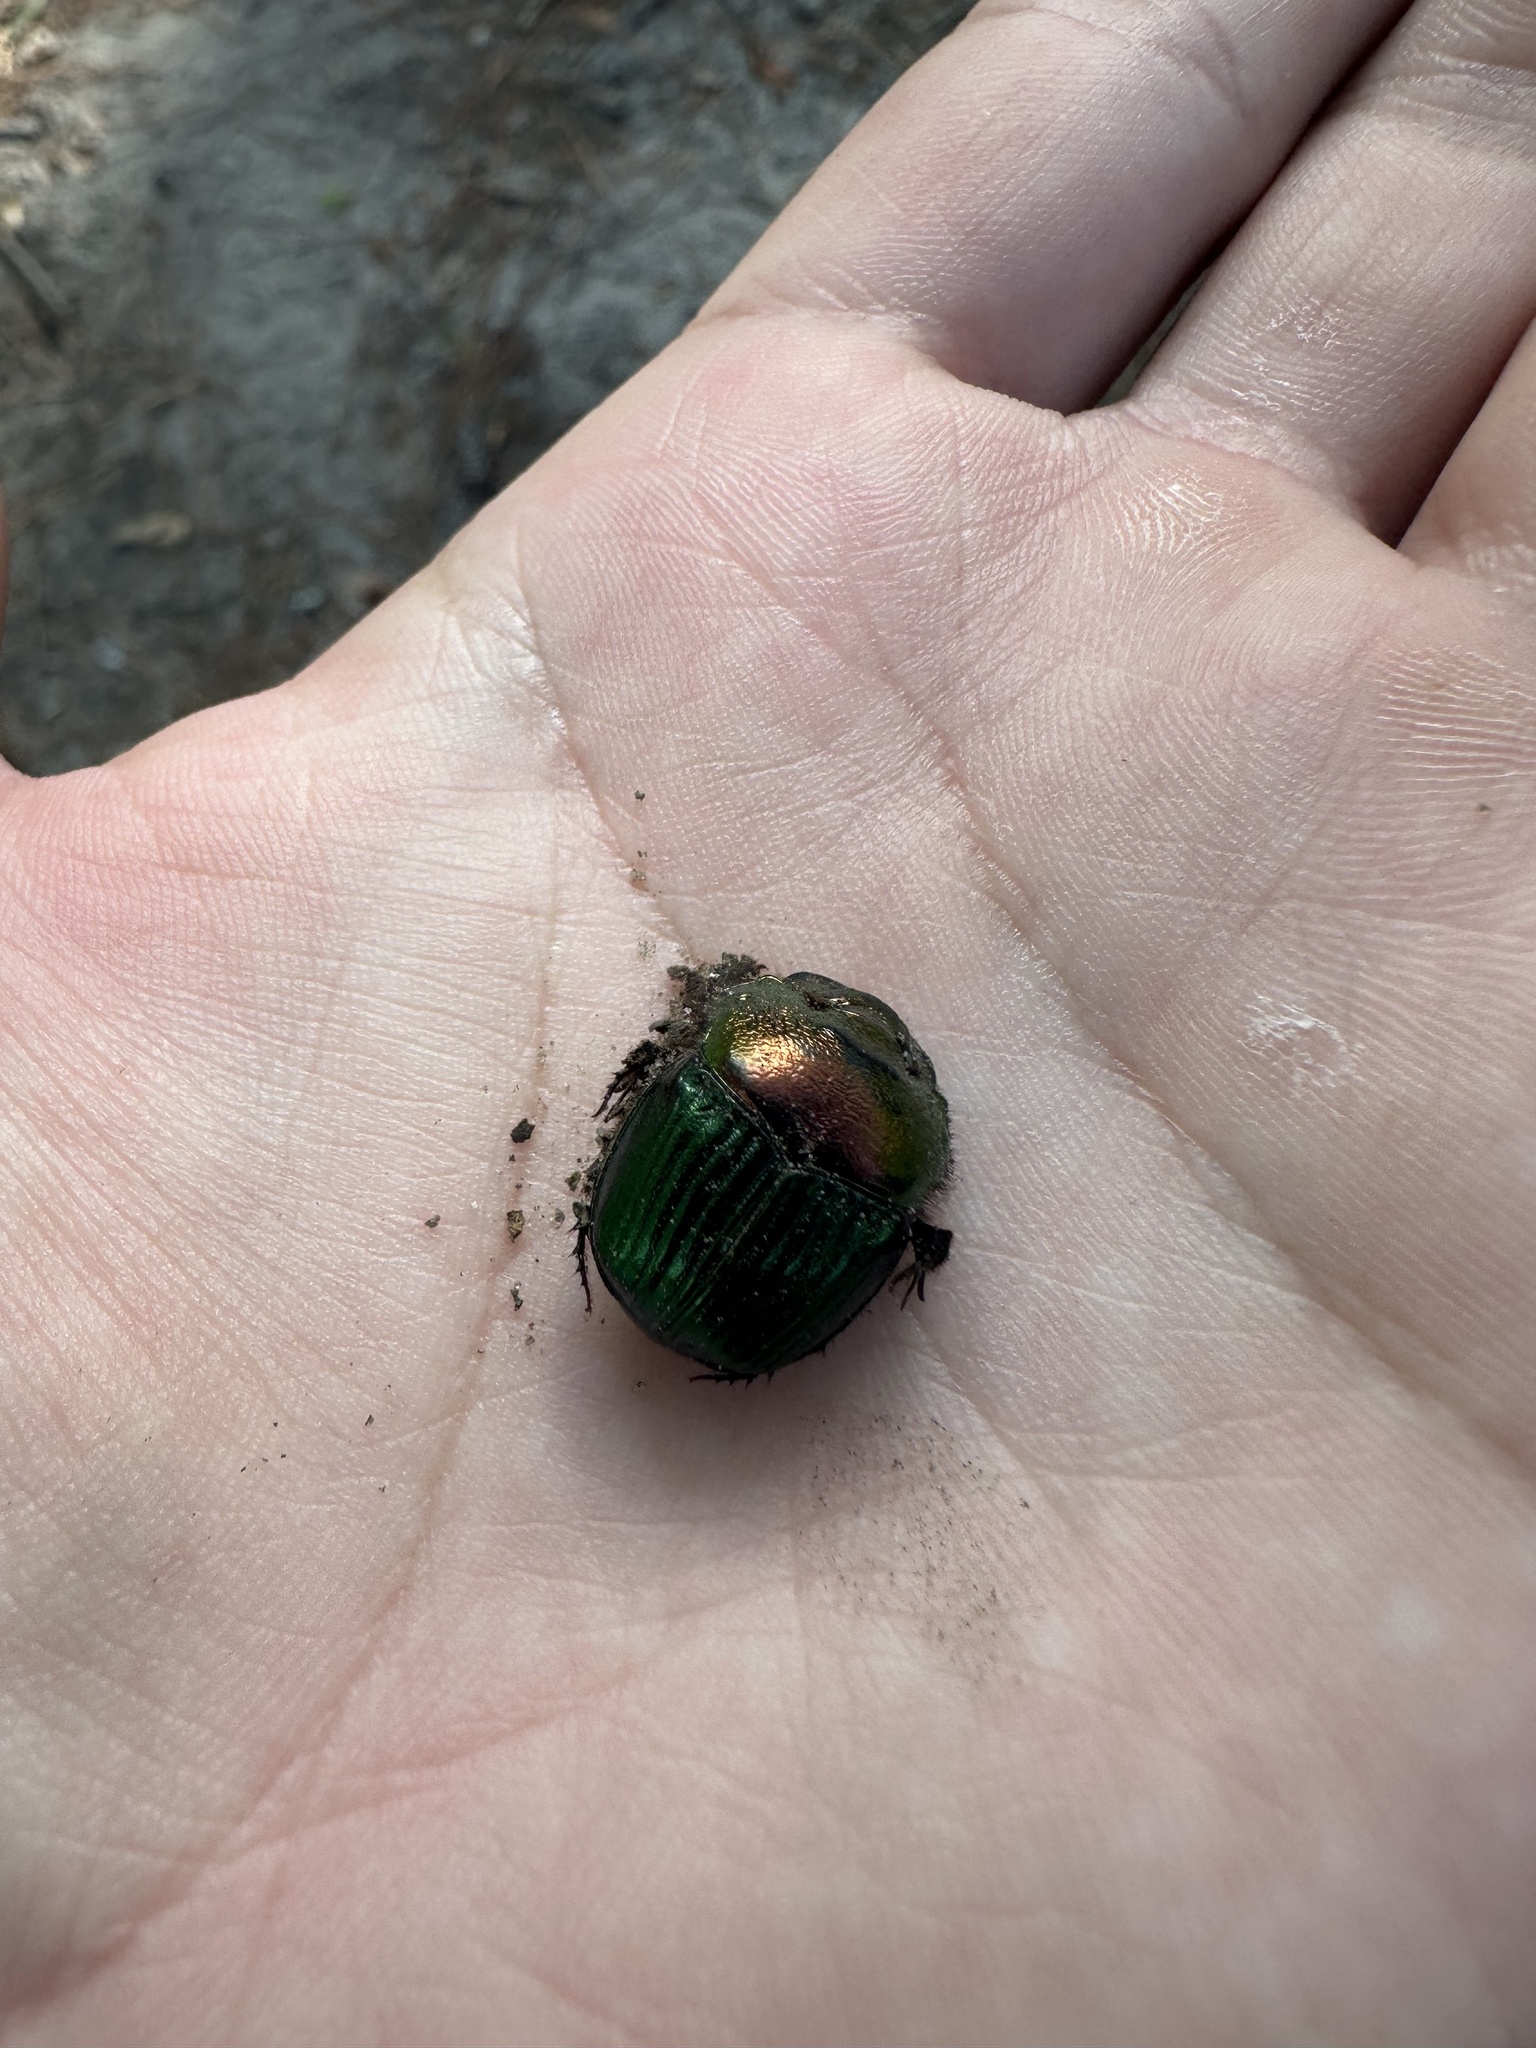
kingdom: Animalia
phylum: Arthropoda
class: Insecta
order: Coleoptera
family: Scarabaeidae
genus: Phanaeus
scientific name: Phanaeus igneus
